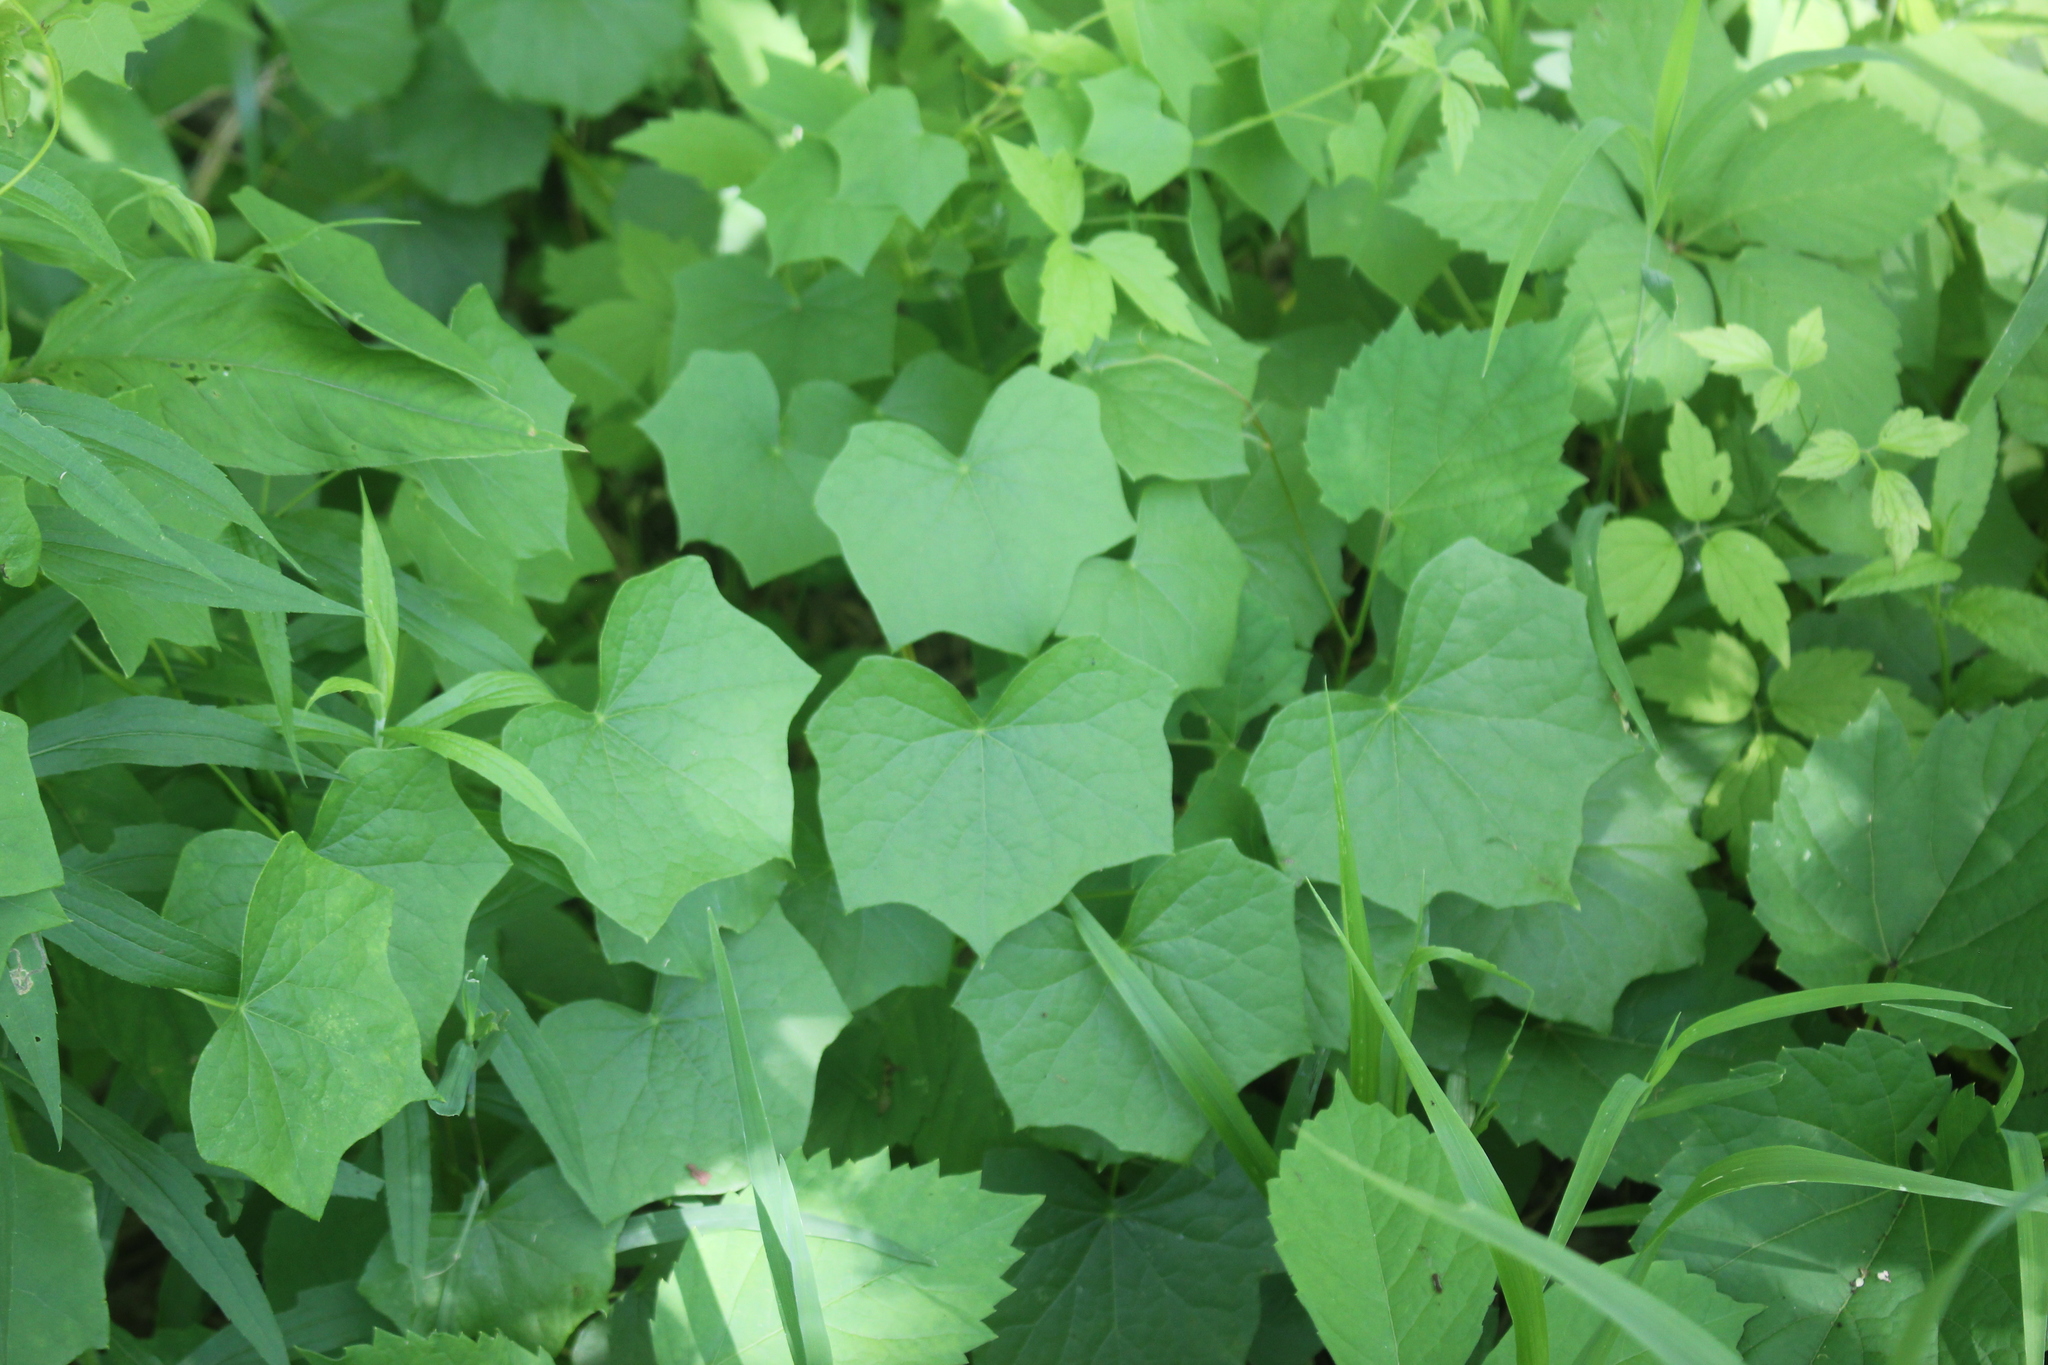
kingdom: Plantae
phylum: Tracheophyta
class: Magnoliopsida
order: Ranunculales
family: Menispermaceae
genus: Menispermum
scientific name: Menispermum canadense
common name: Moonseed
